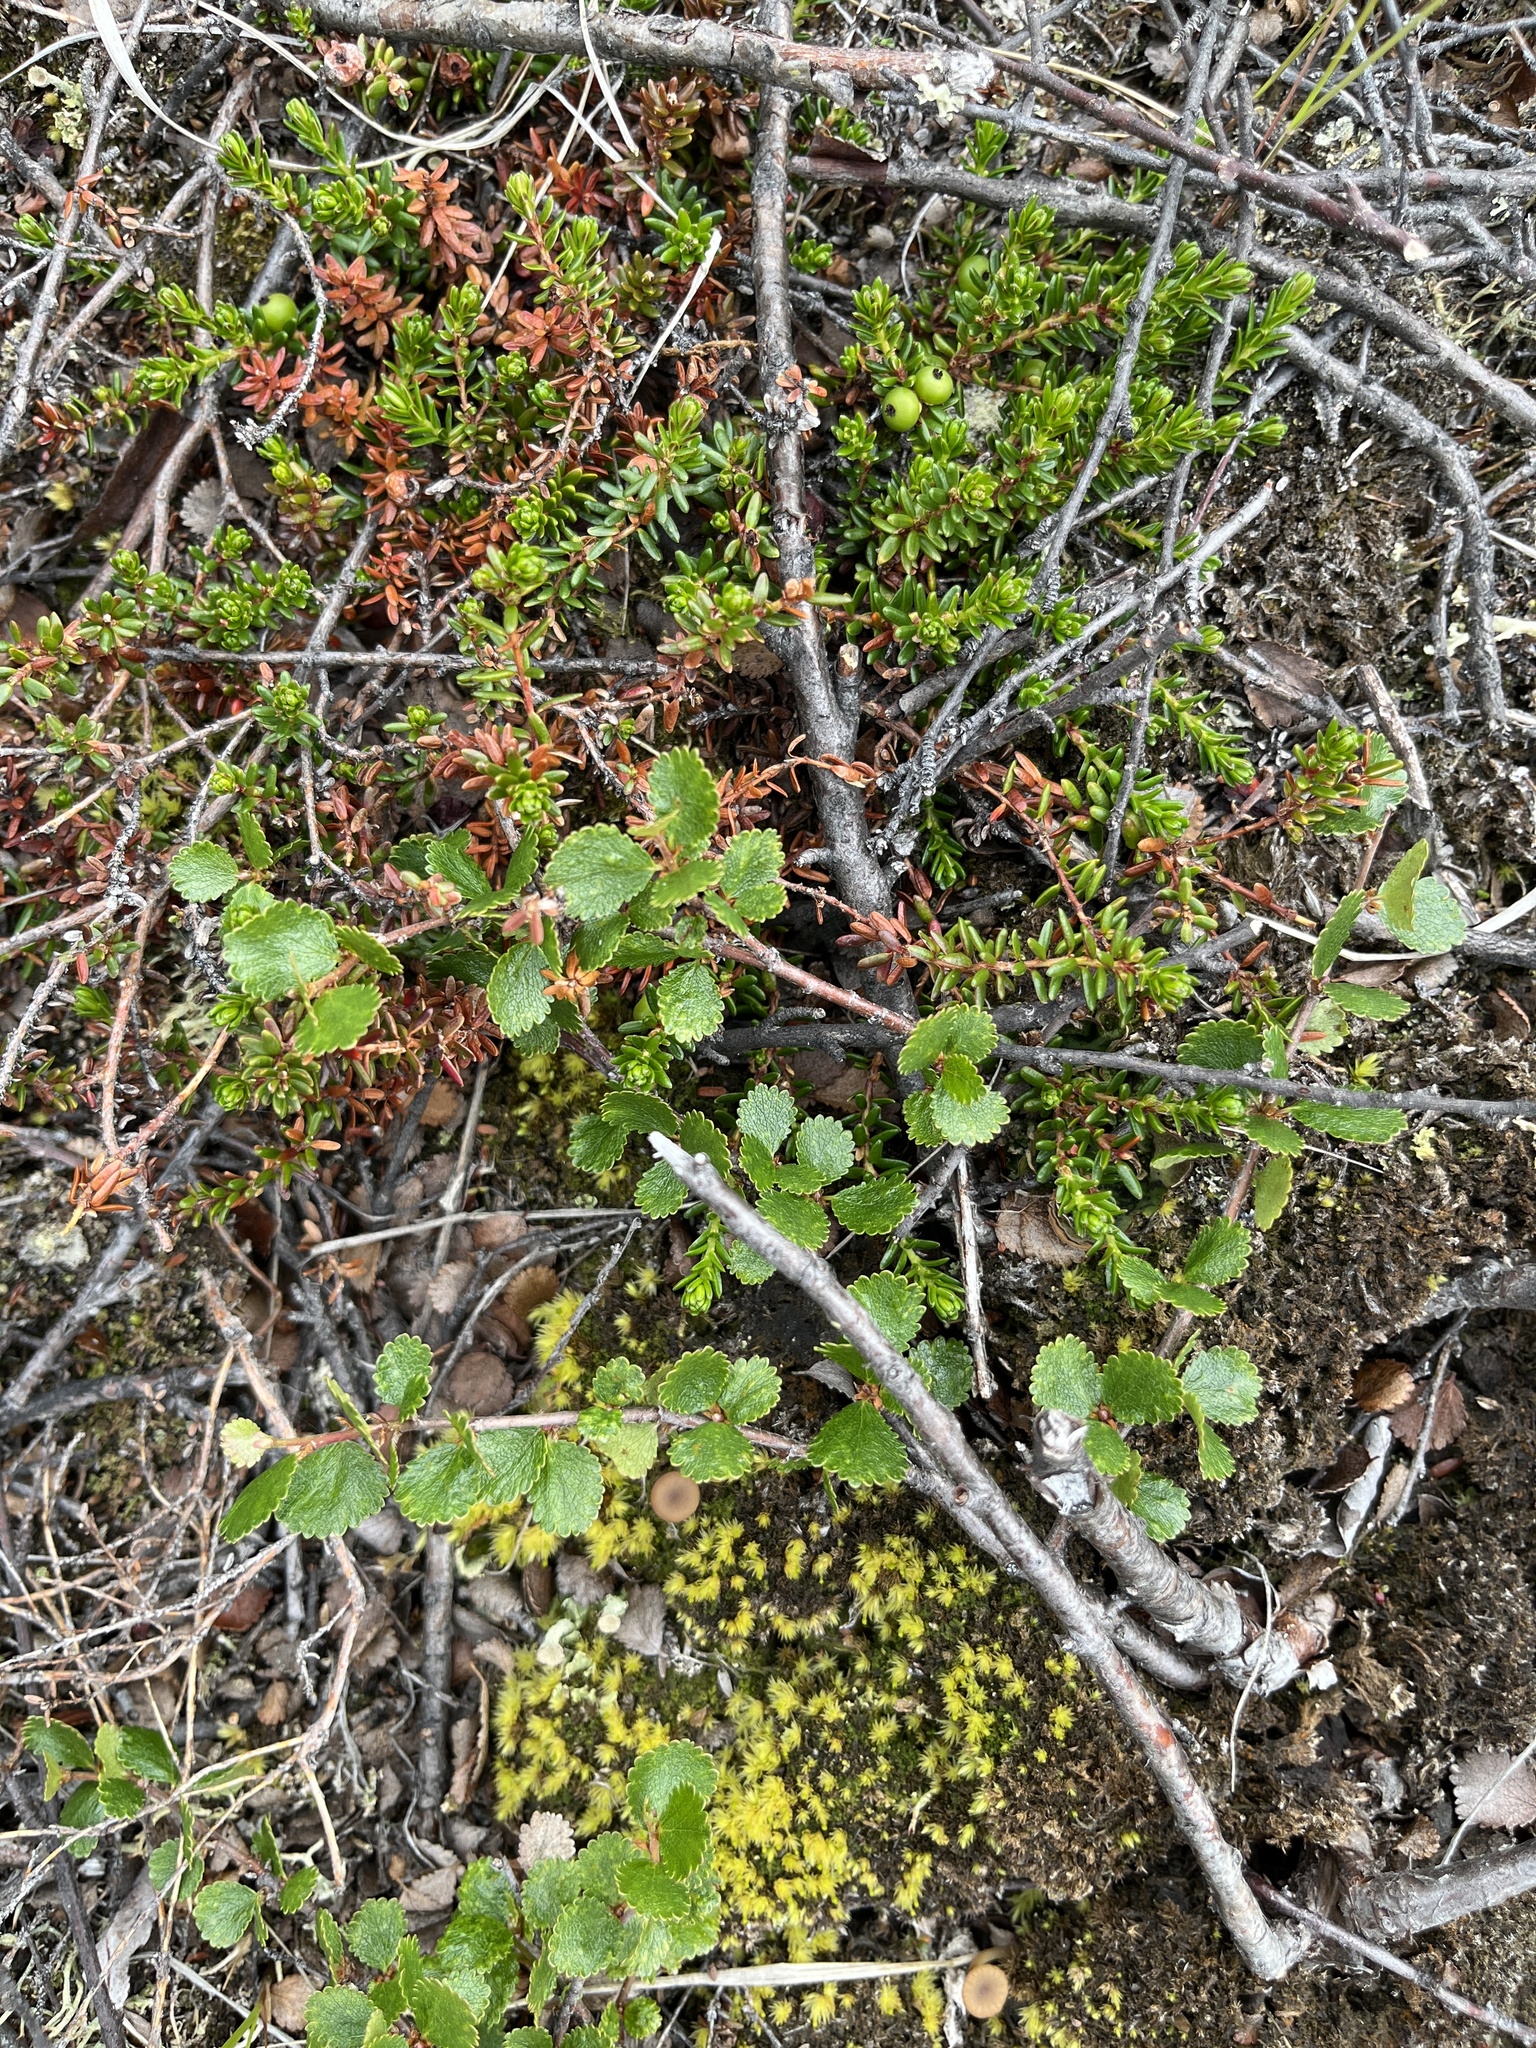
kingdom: Plantae
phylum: Tracheophyta
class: Magnoliopsida
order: Ericales
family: Ericaceae
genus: Empetrum
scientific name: Empetrum hermaphroditum
